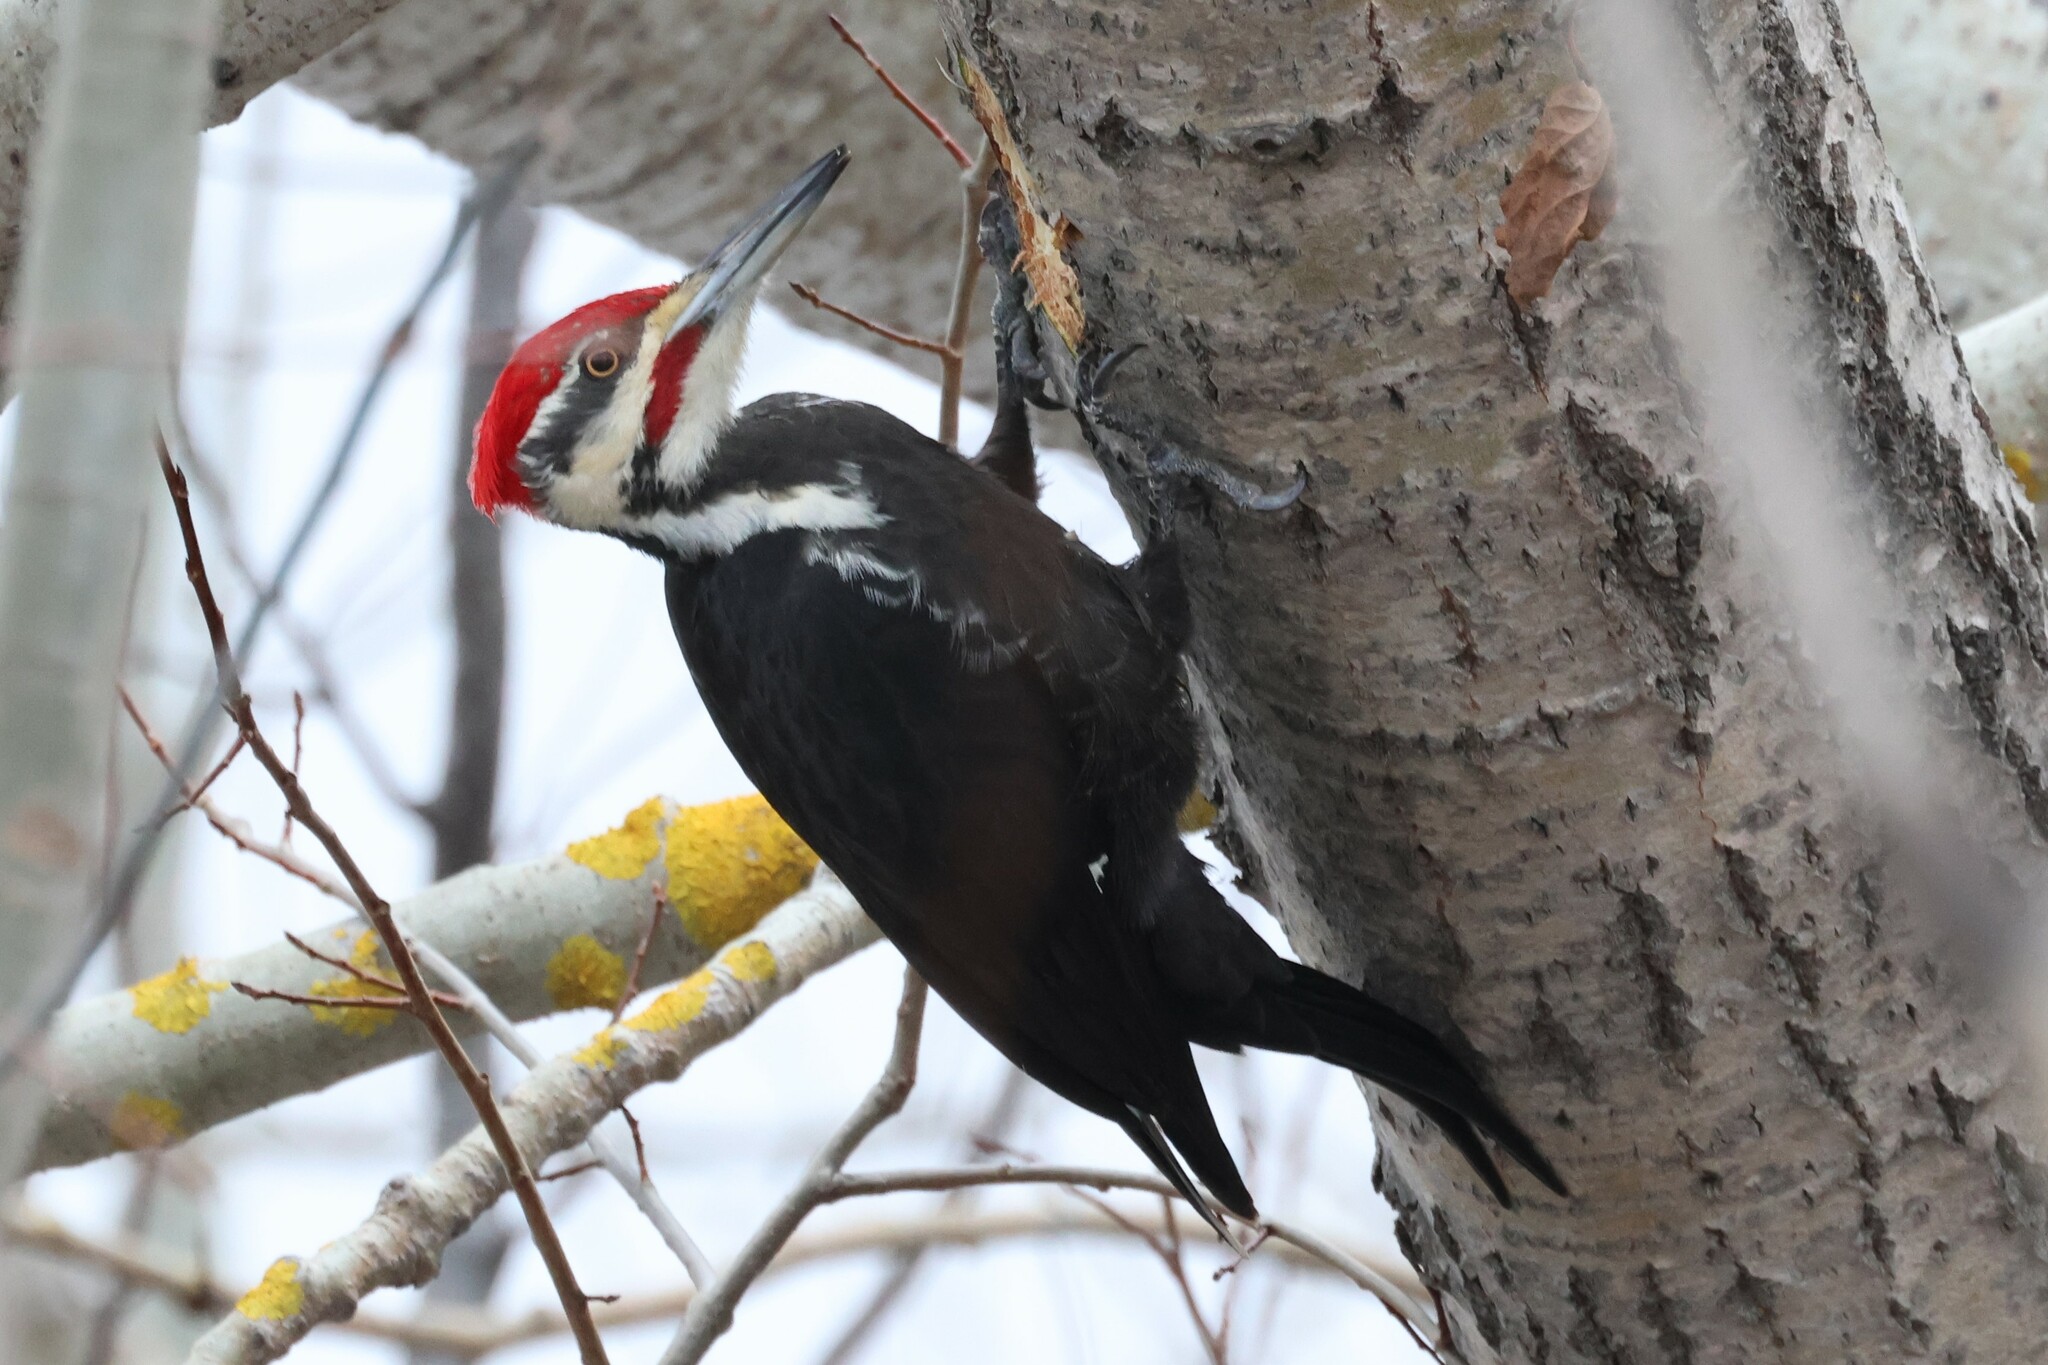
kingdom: Animalia
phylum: Chordata
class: Aves
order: Piciformes
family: Picidae
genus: Dryocopus
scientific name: Dryocopus pileatus
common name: Pileated woodpecker
